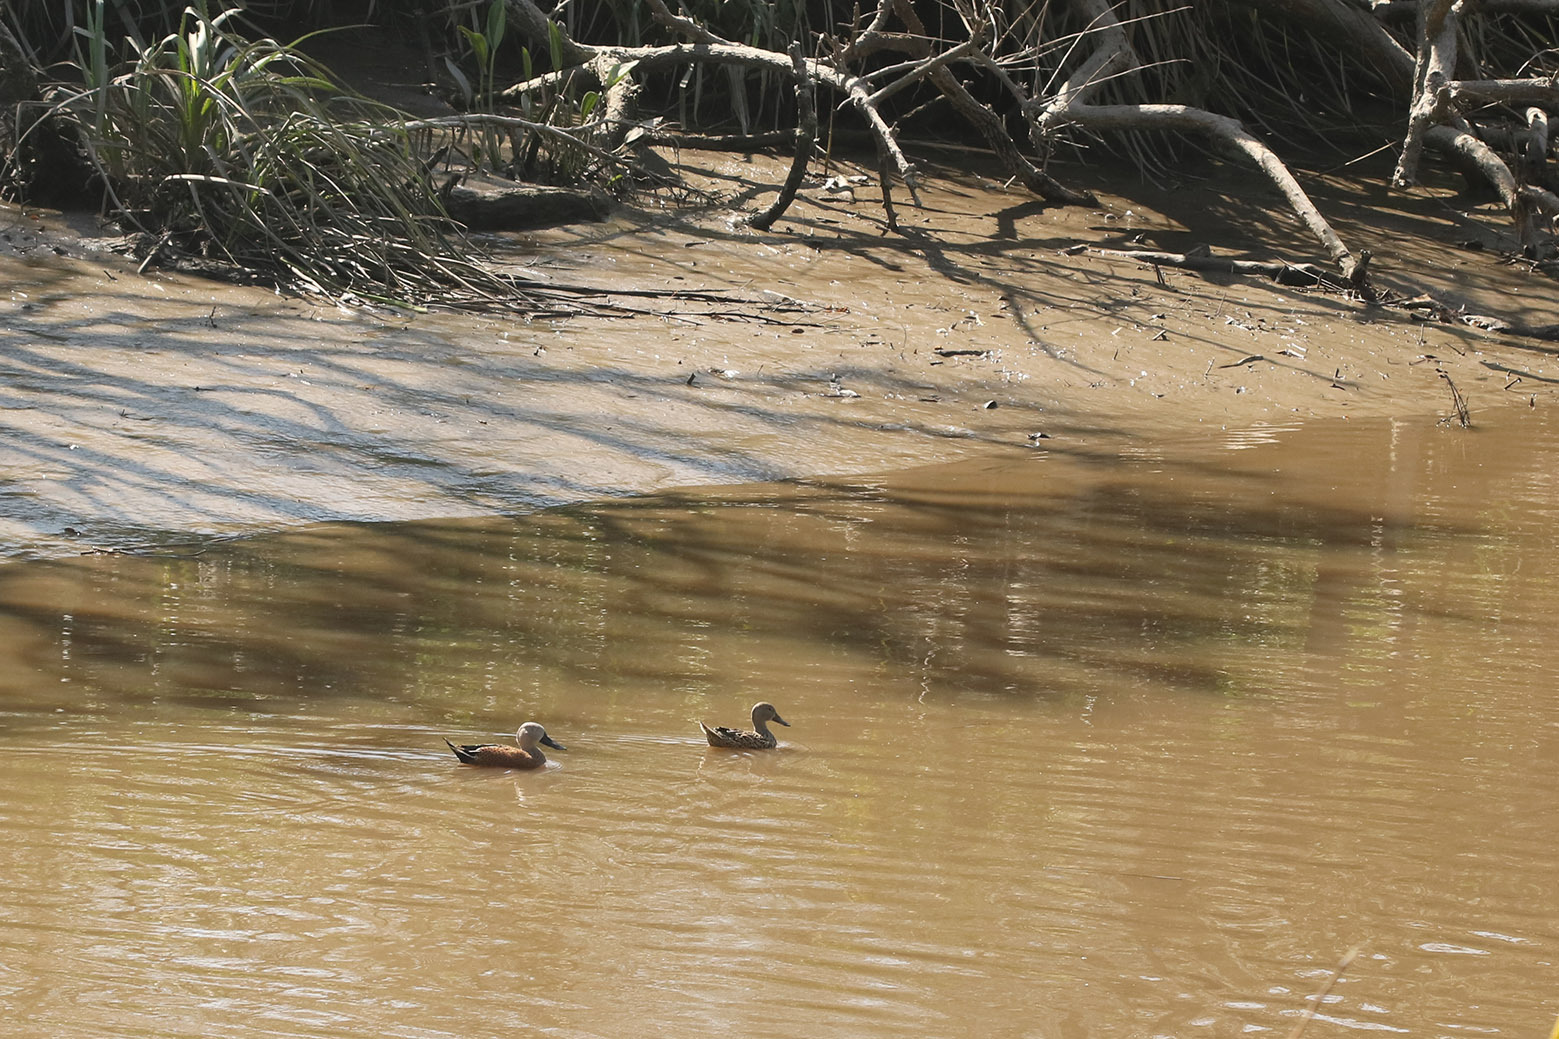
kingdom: Animalia
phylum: Chordata
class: Aves
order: Anseriformes
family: Anatidae
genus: Spatula
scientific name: Spatula platalea
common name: Red shoveler
